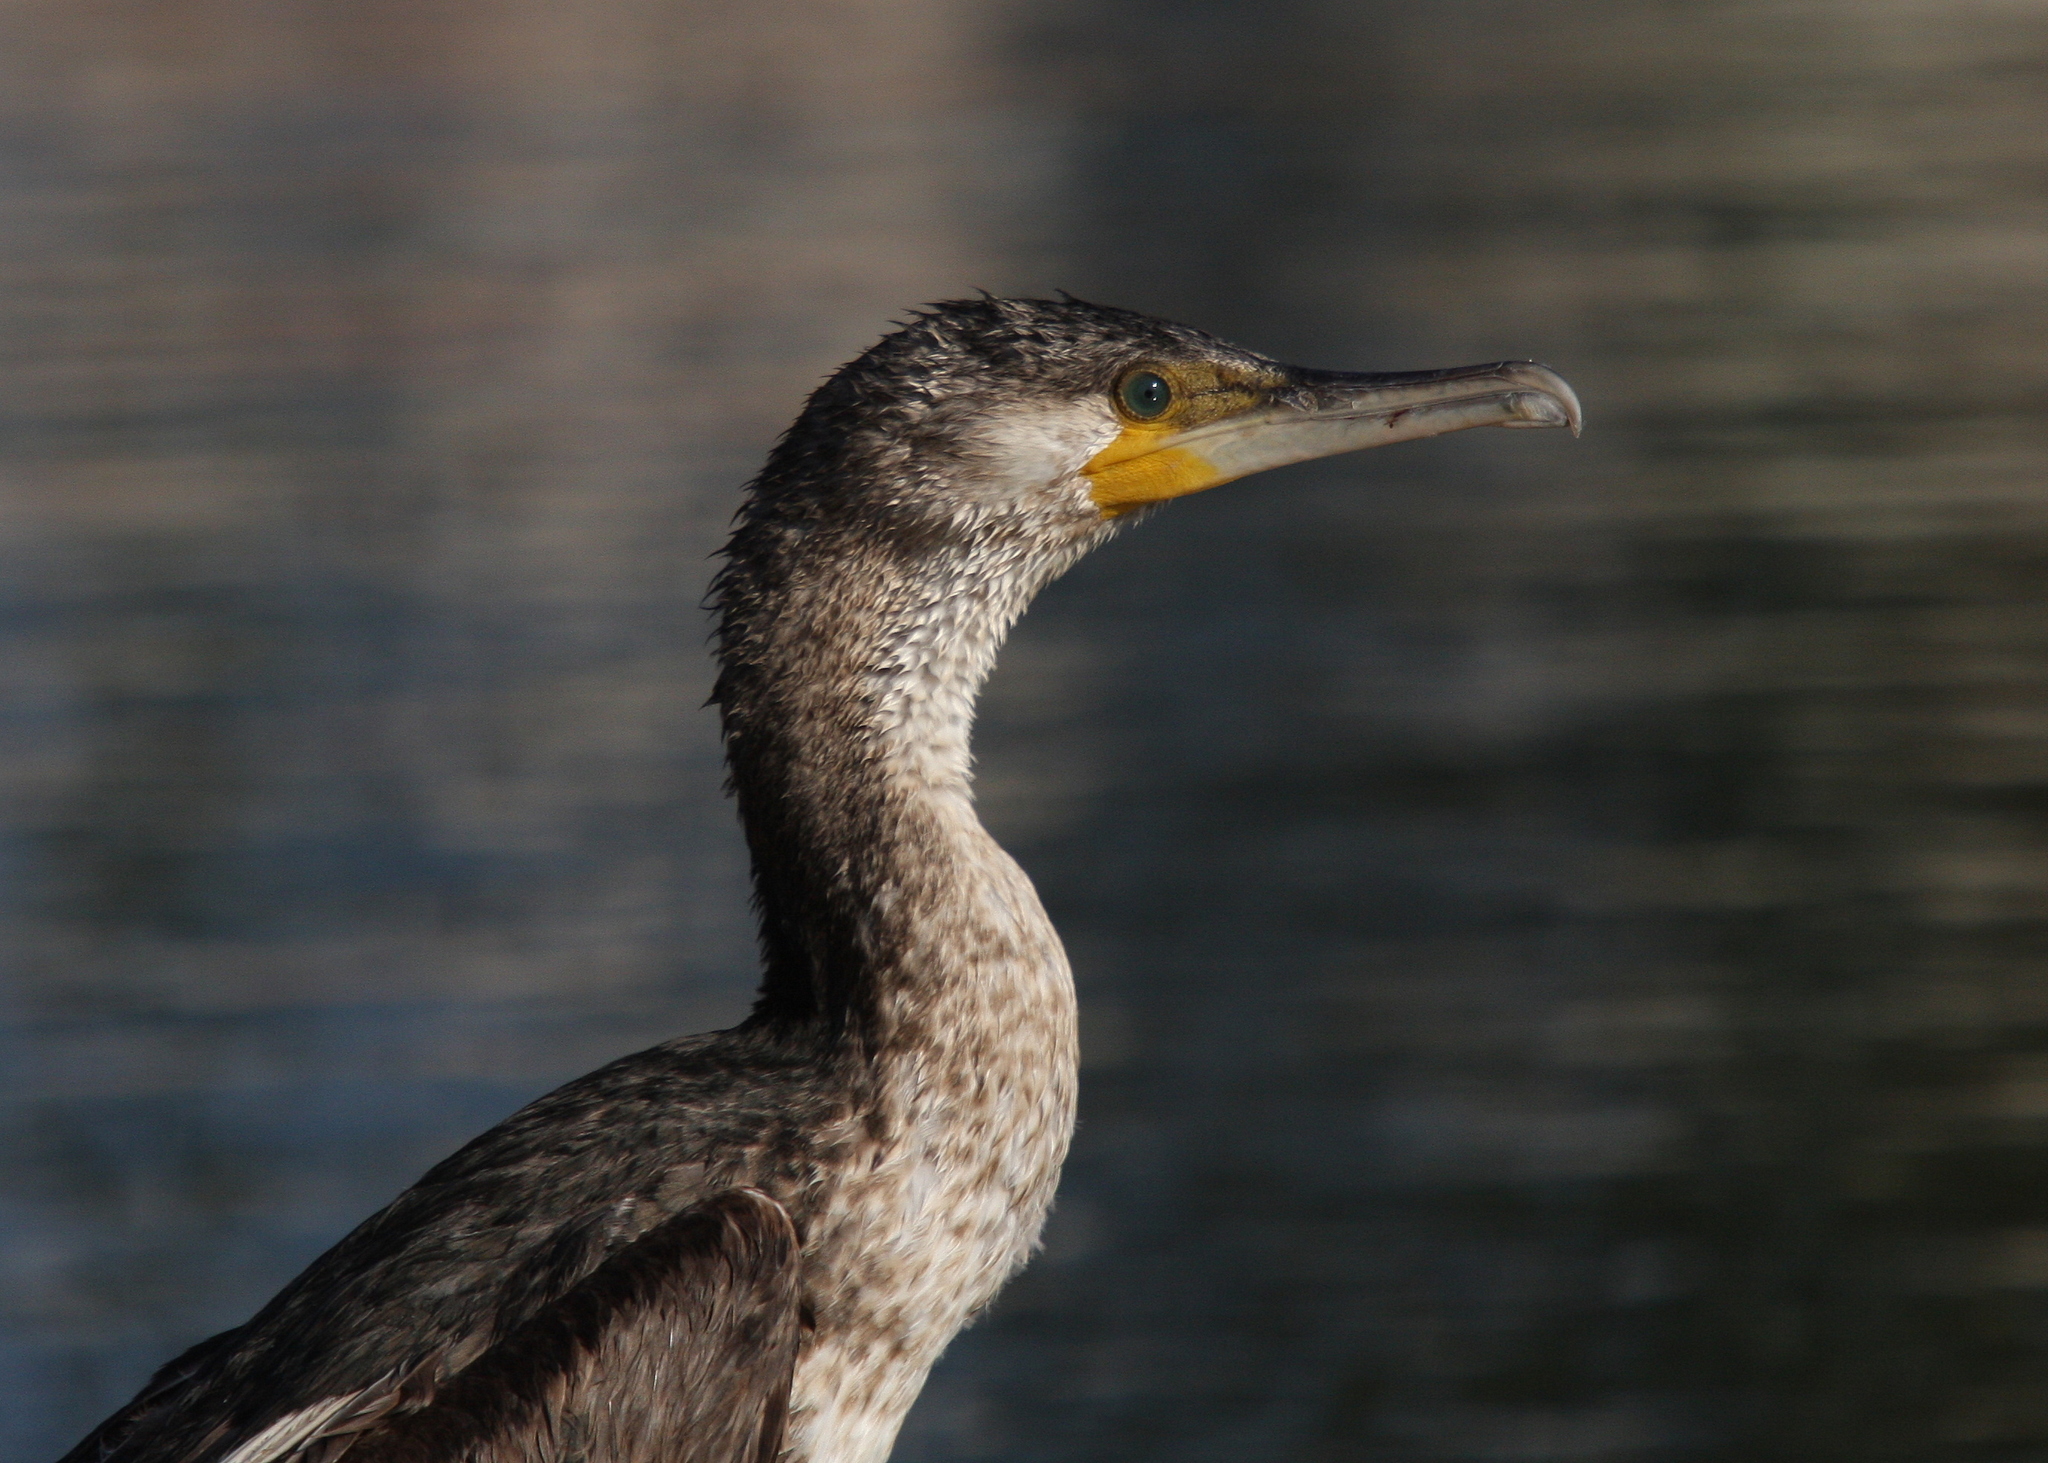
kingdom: Animalia
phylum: Chordata
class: Aves
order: Suliformes
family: Phalacrocoracidae
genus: Phalacrocorax
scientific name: Phalacrocorax carbo
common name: Great cormorant
